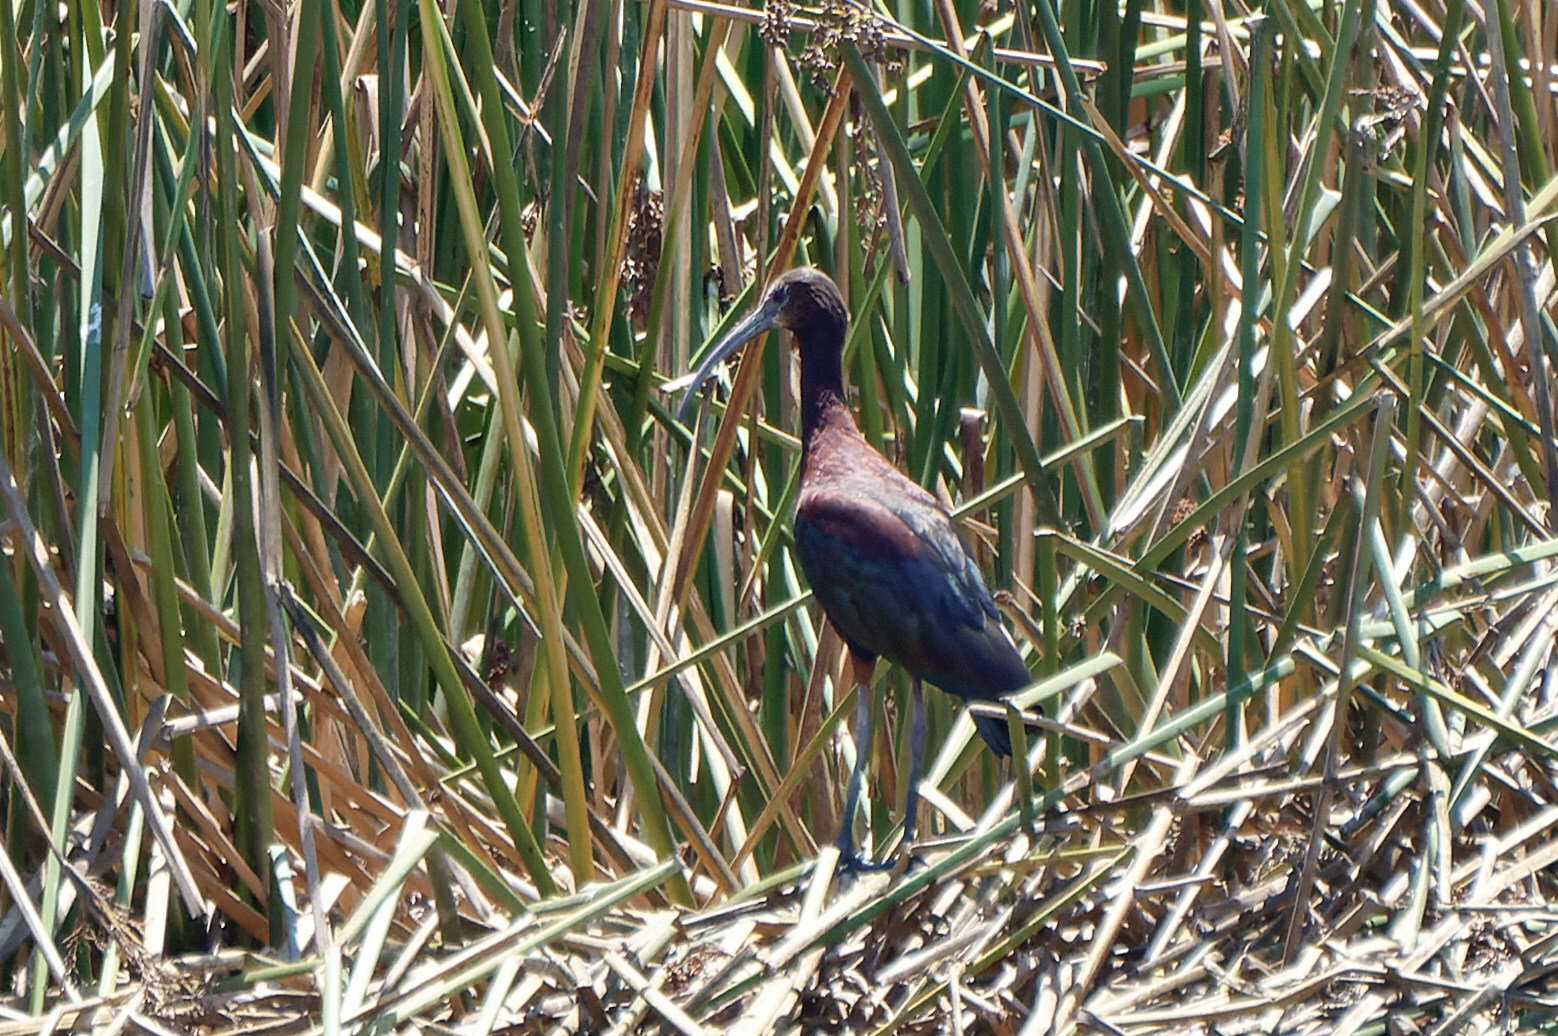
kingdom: Animalia
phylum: Chordata
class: Aves
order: Pelecaniformes
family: Threskiornithidae
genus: Plegadis
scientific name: Plegadis chihi
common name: White-faced ibis
